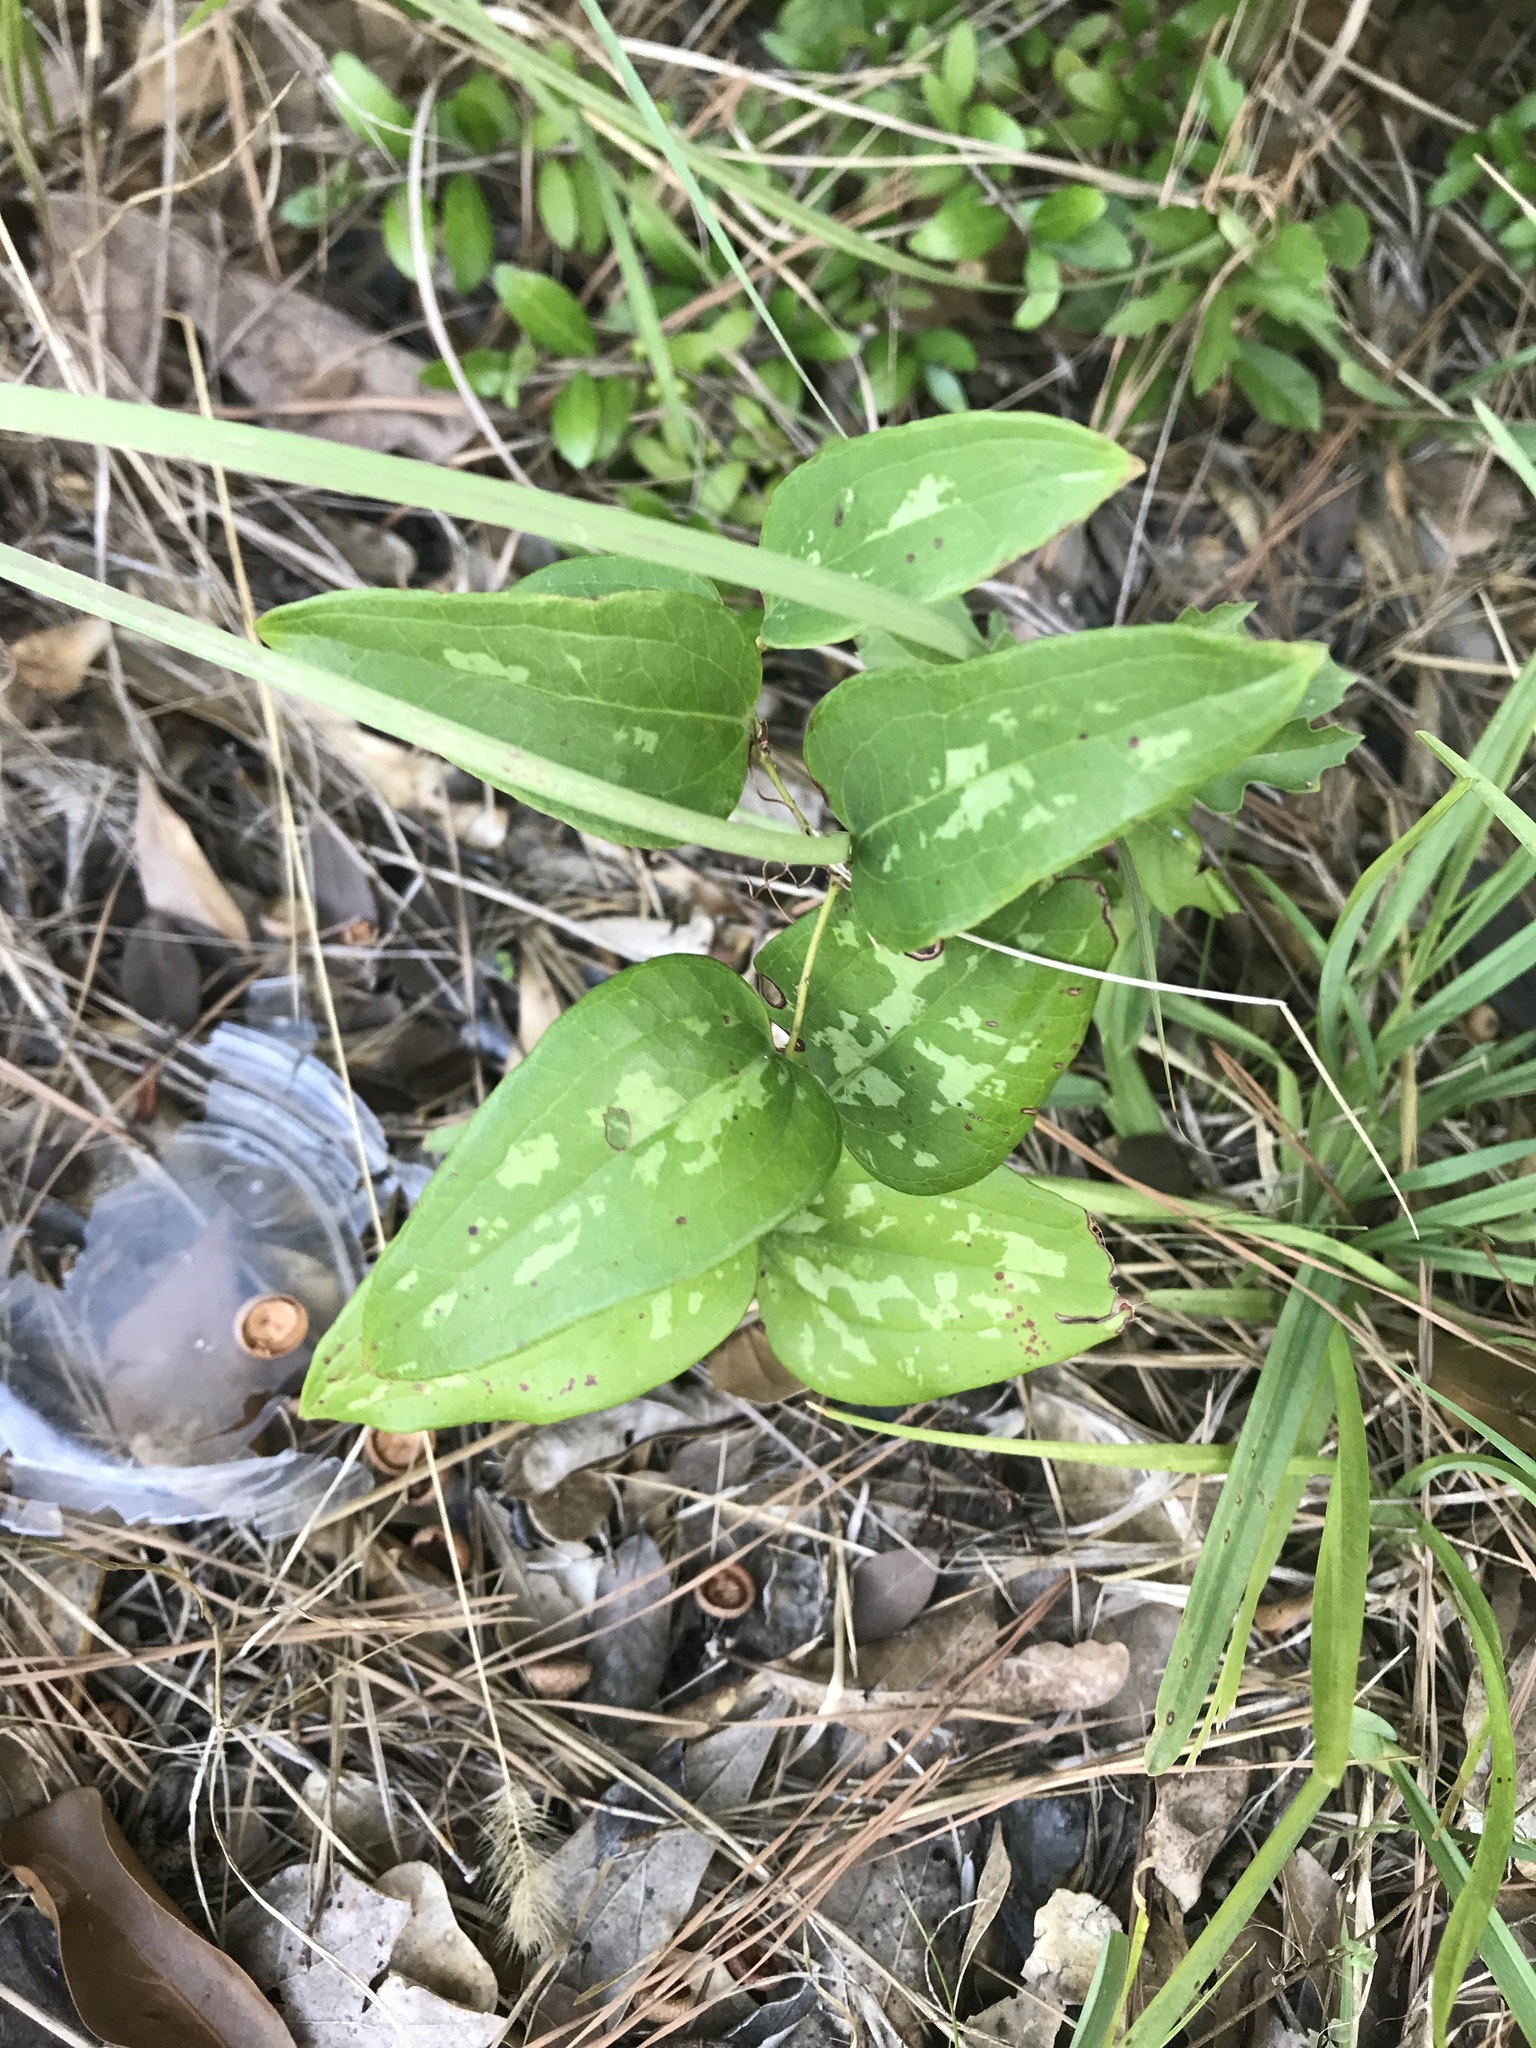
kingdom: Plantae
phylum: Tracheophyta
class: Liliopsida
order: Liliales
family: Smilacaceae
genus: Smilax
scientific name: Smilax bona-nox
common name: Catbrier
